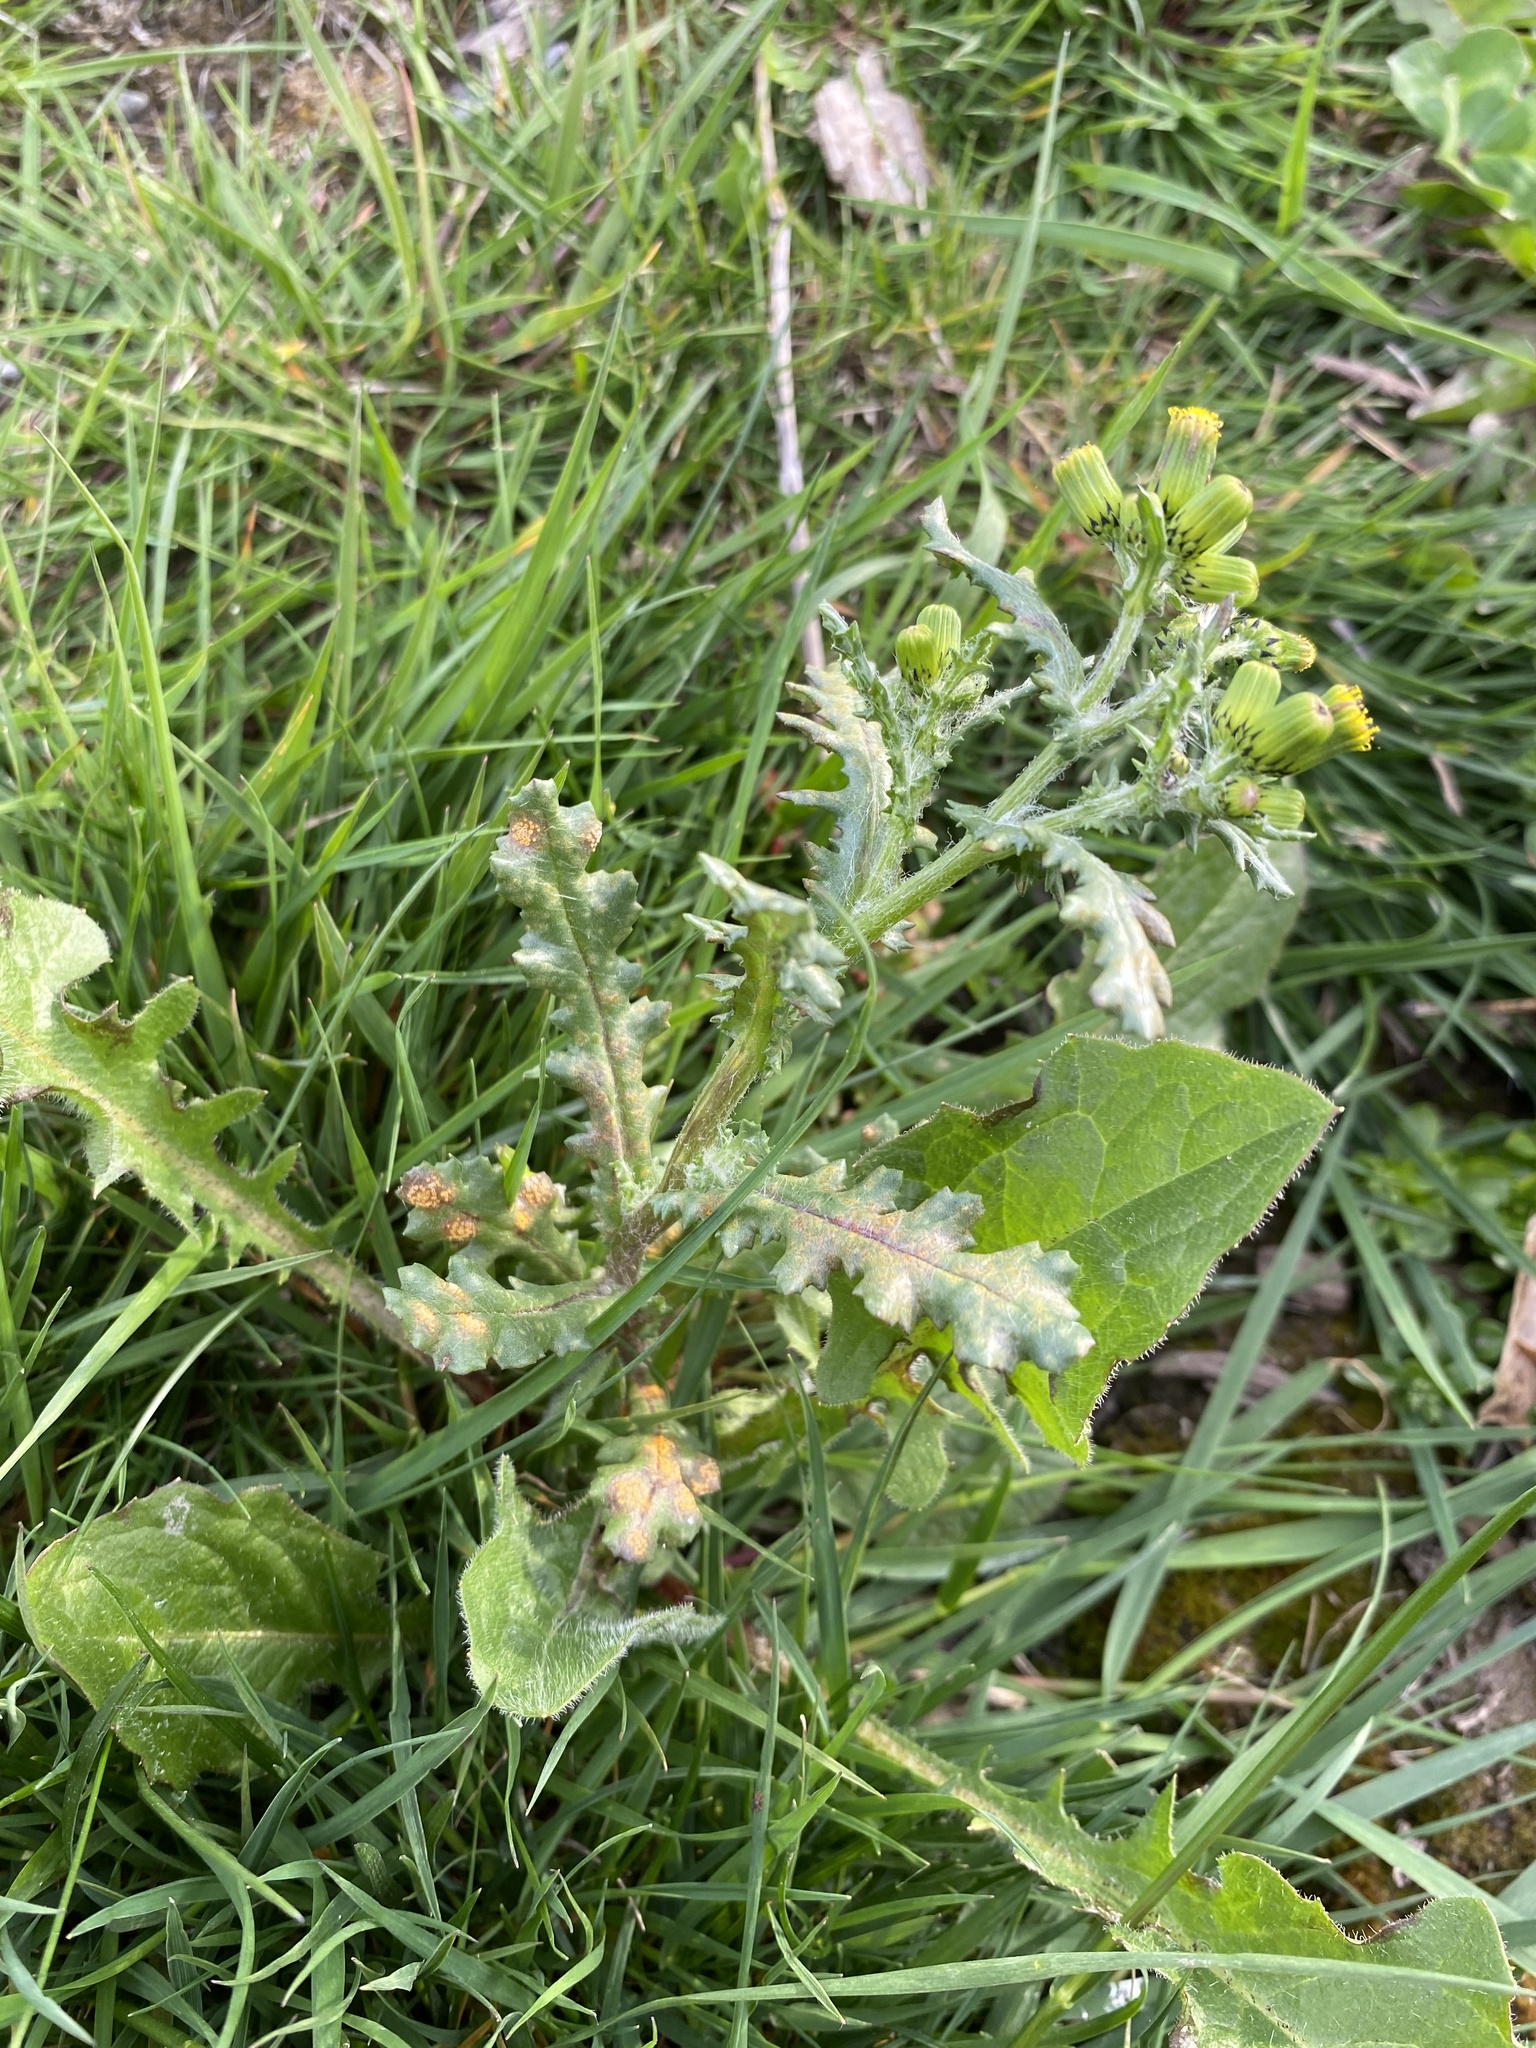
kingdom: Plantae
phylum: Tracheophyta
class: Magnoliopsida
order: Asterales
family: Asteraceae
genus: Senecio
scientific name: Senecio vulgaris
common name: Old-man-in-the-spring
